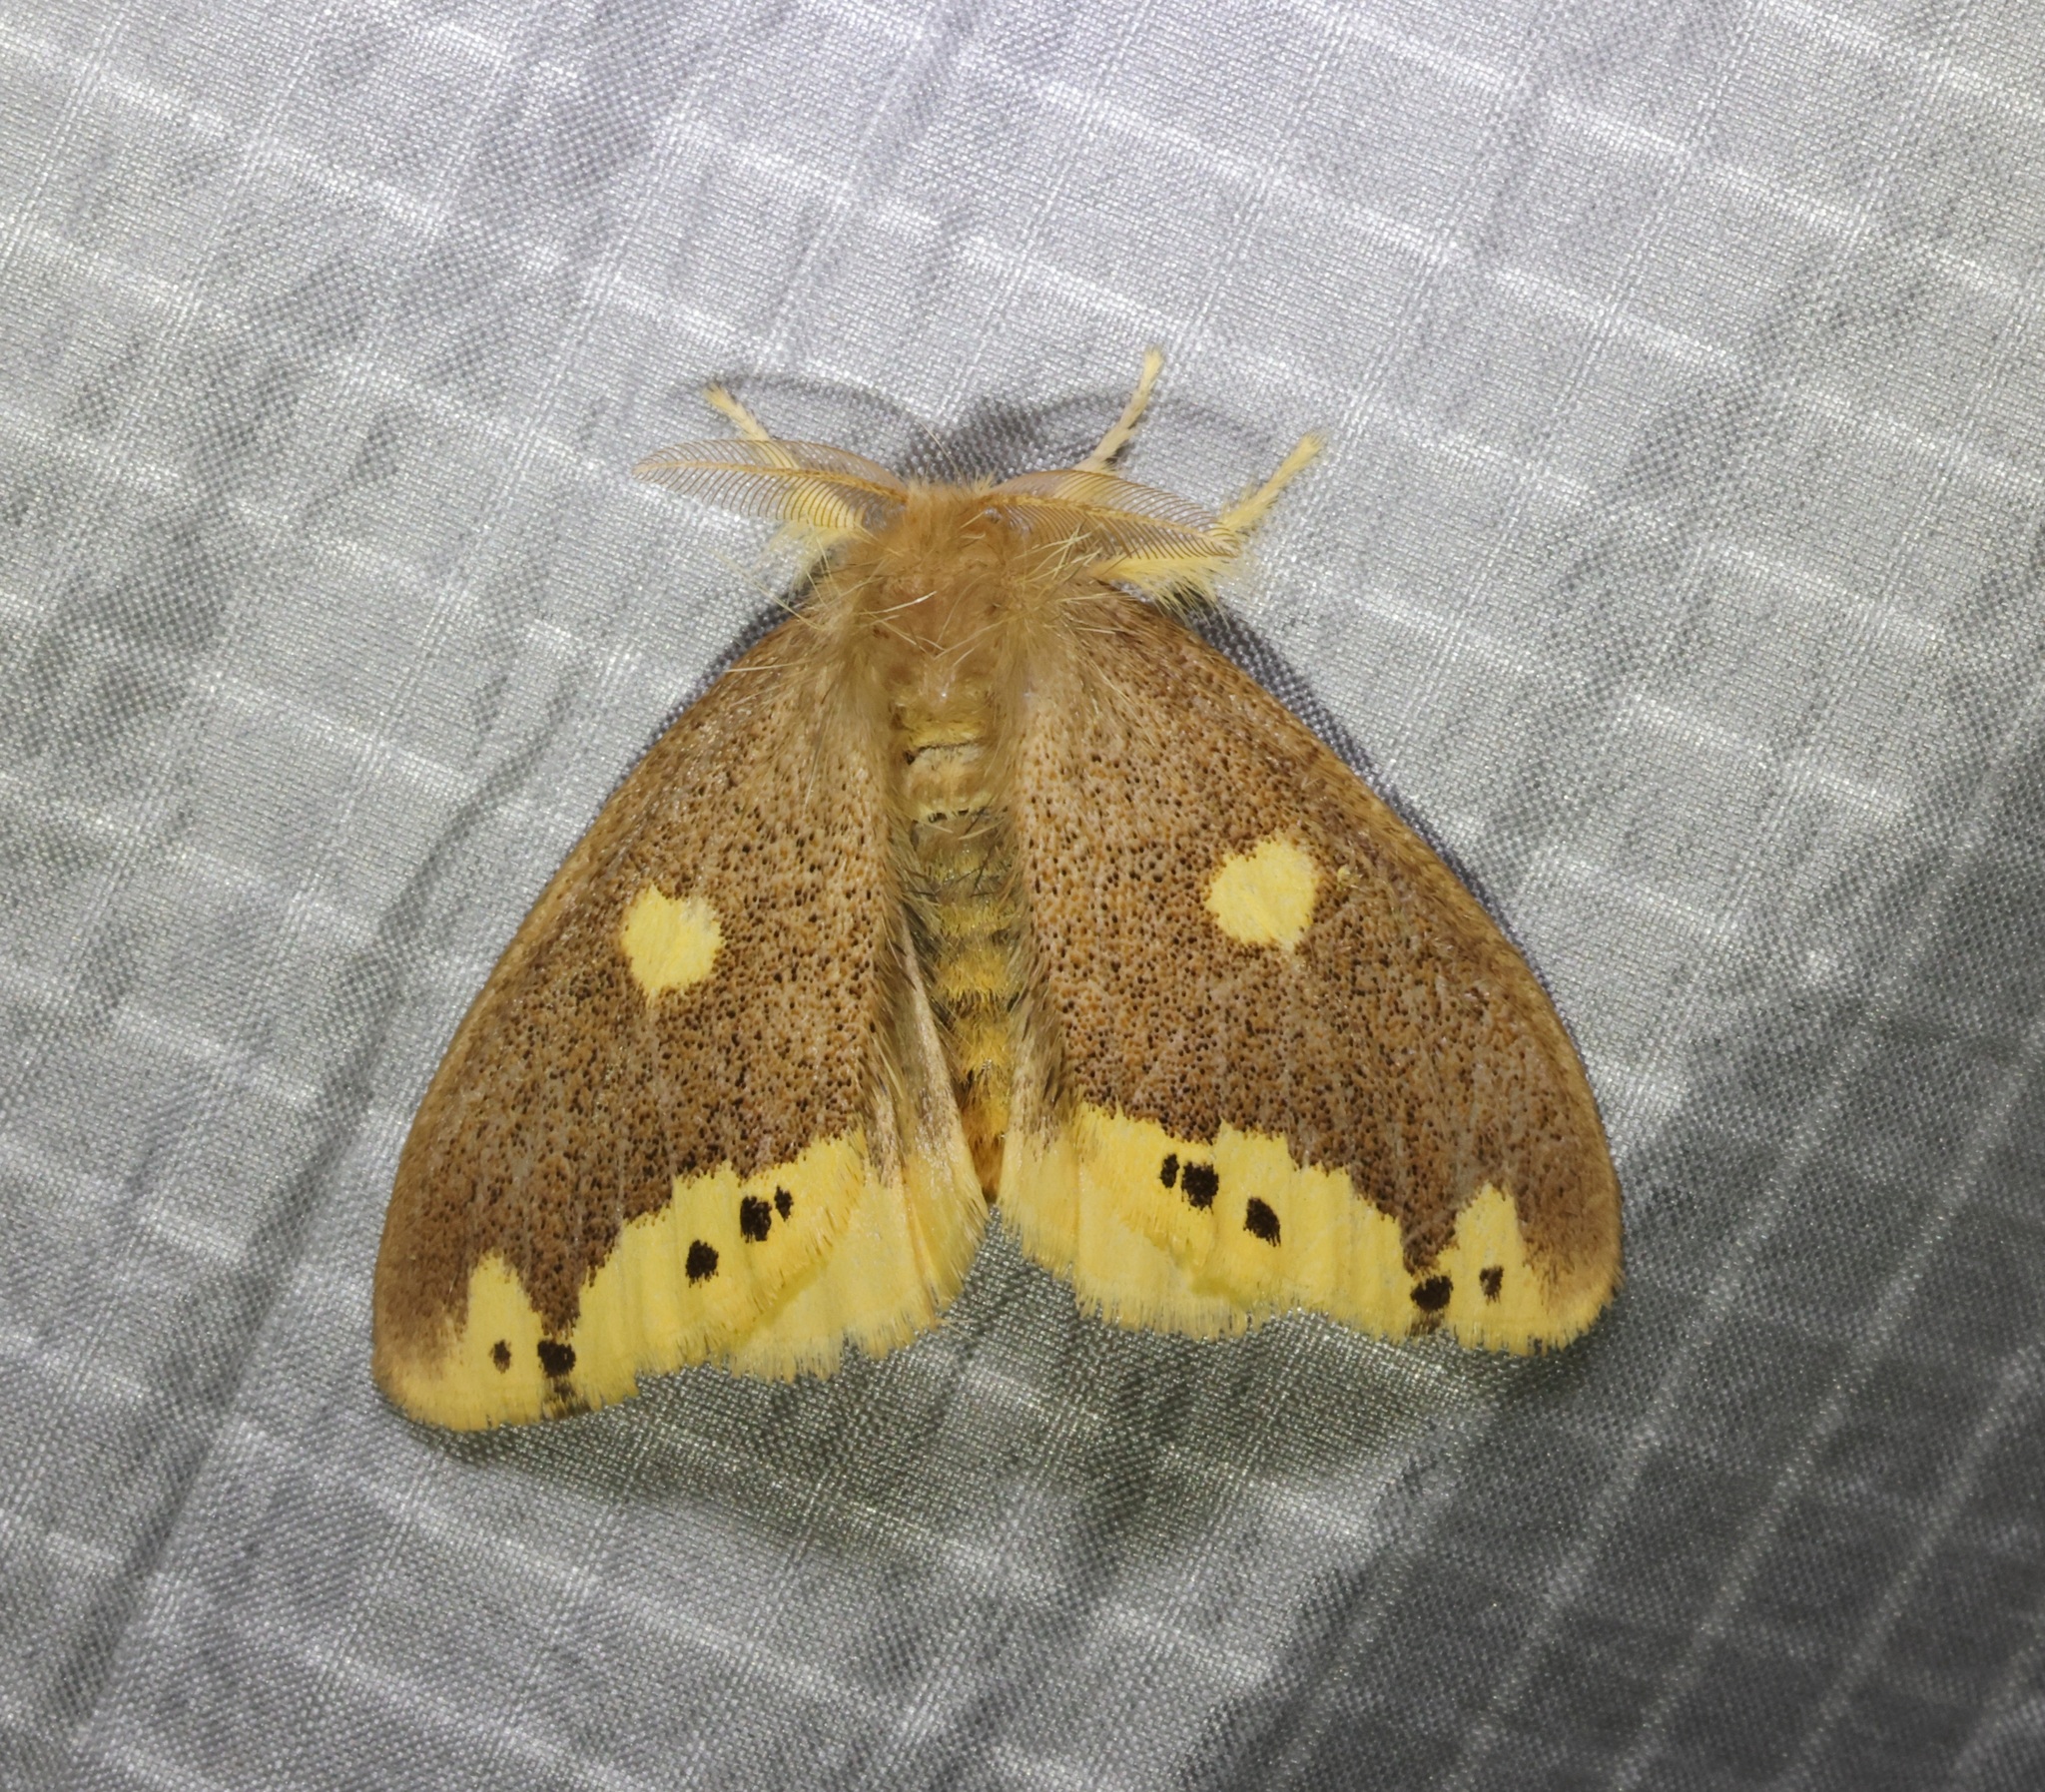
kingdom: Animalia
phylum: Arthropoda
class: Insecta
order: Lepidoptera
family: Erebidae
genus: Euproctis
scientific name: Euproctis quadrangularis
